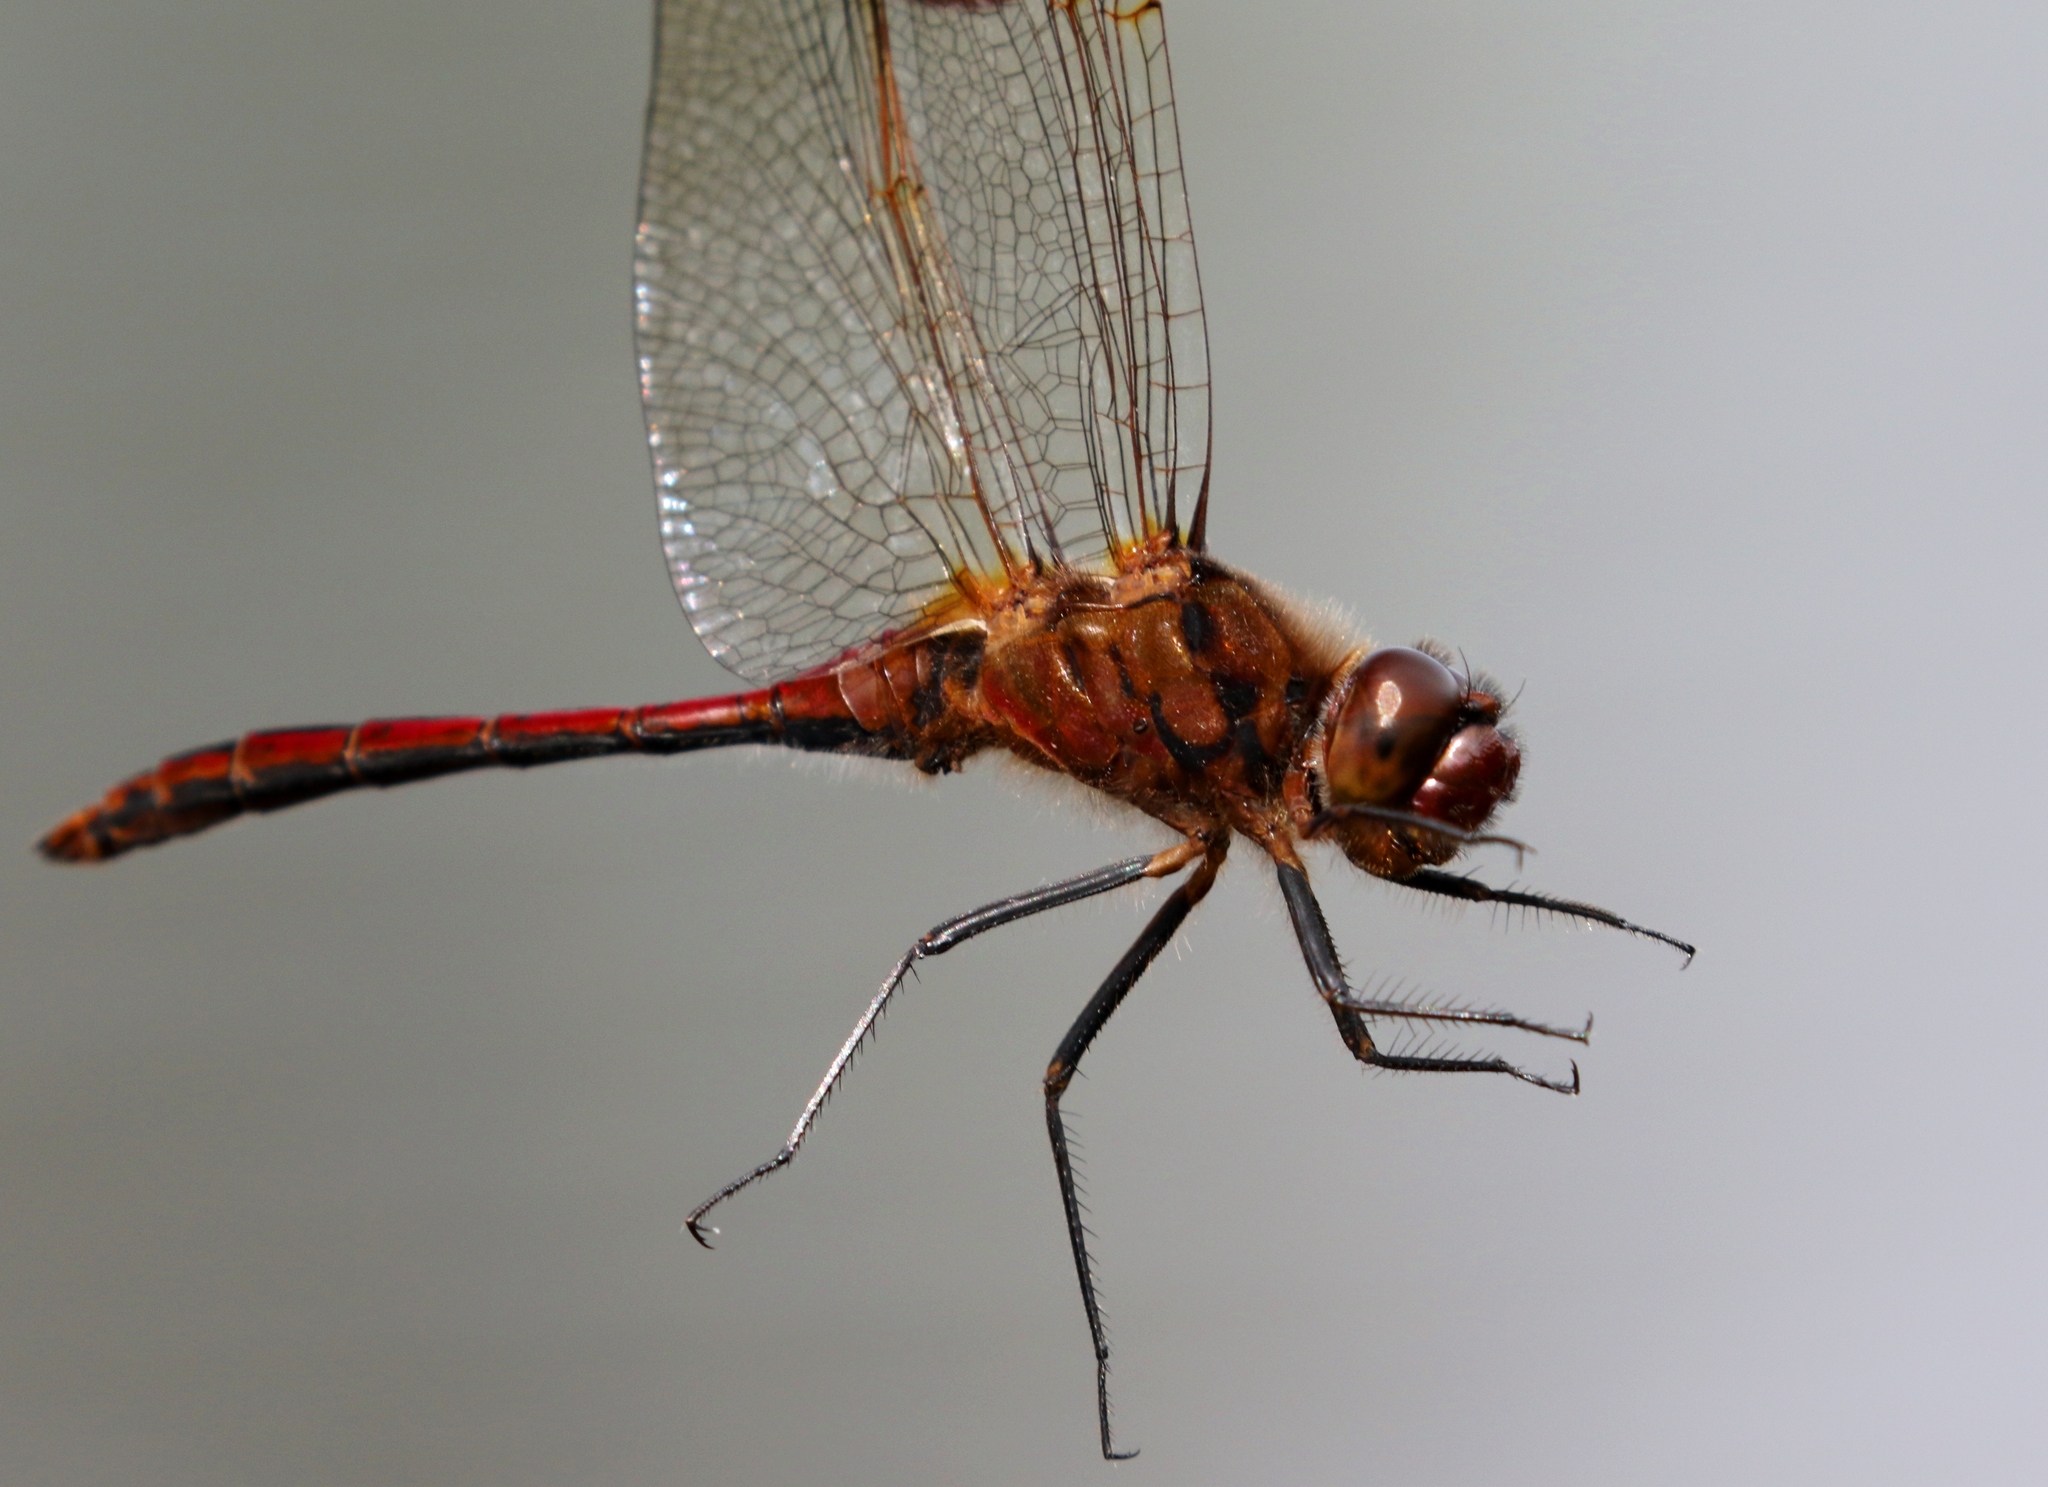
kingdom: Animalia
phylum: Arthropoda
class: Insecta
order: Odonata
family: Libellulidae
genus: Sympetrum
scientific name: Sympetrum costiferum
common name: Saffron-winged meadowhawk
